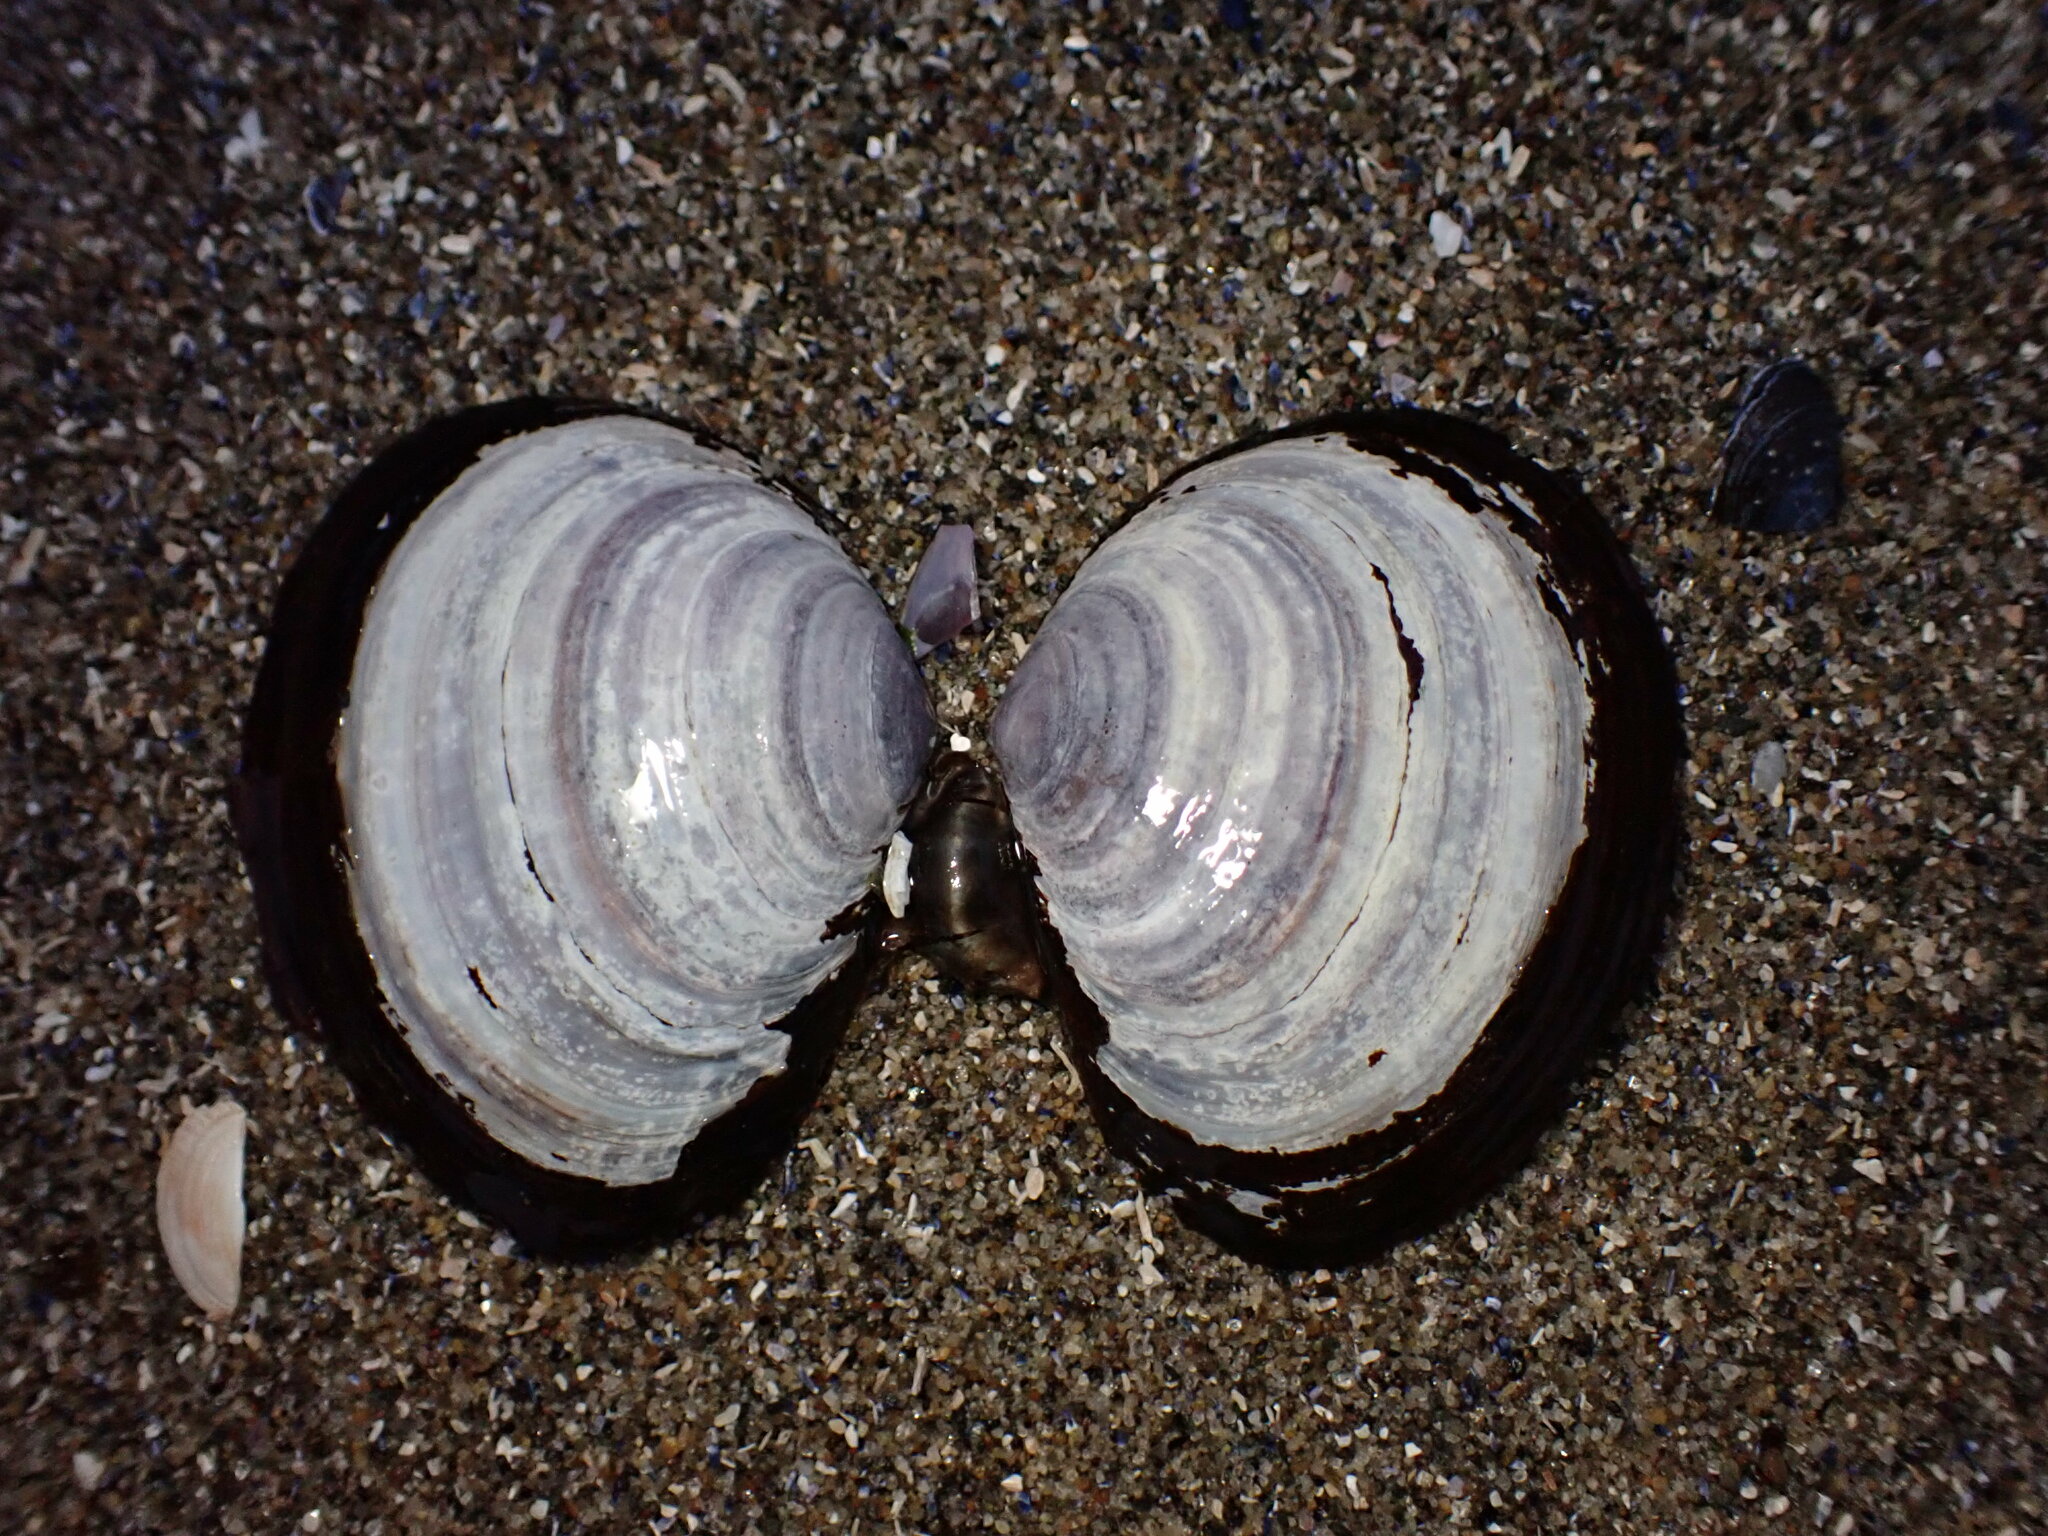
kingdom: Animalia
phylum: Mollusca
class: Bivalvia
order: Cardiida
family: Psammobiidae
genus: Nuttallia
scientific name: Nuttallia obscurata
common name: Purple mahogany-clam
